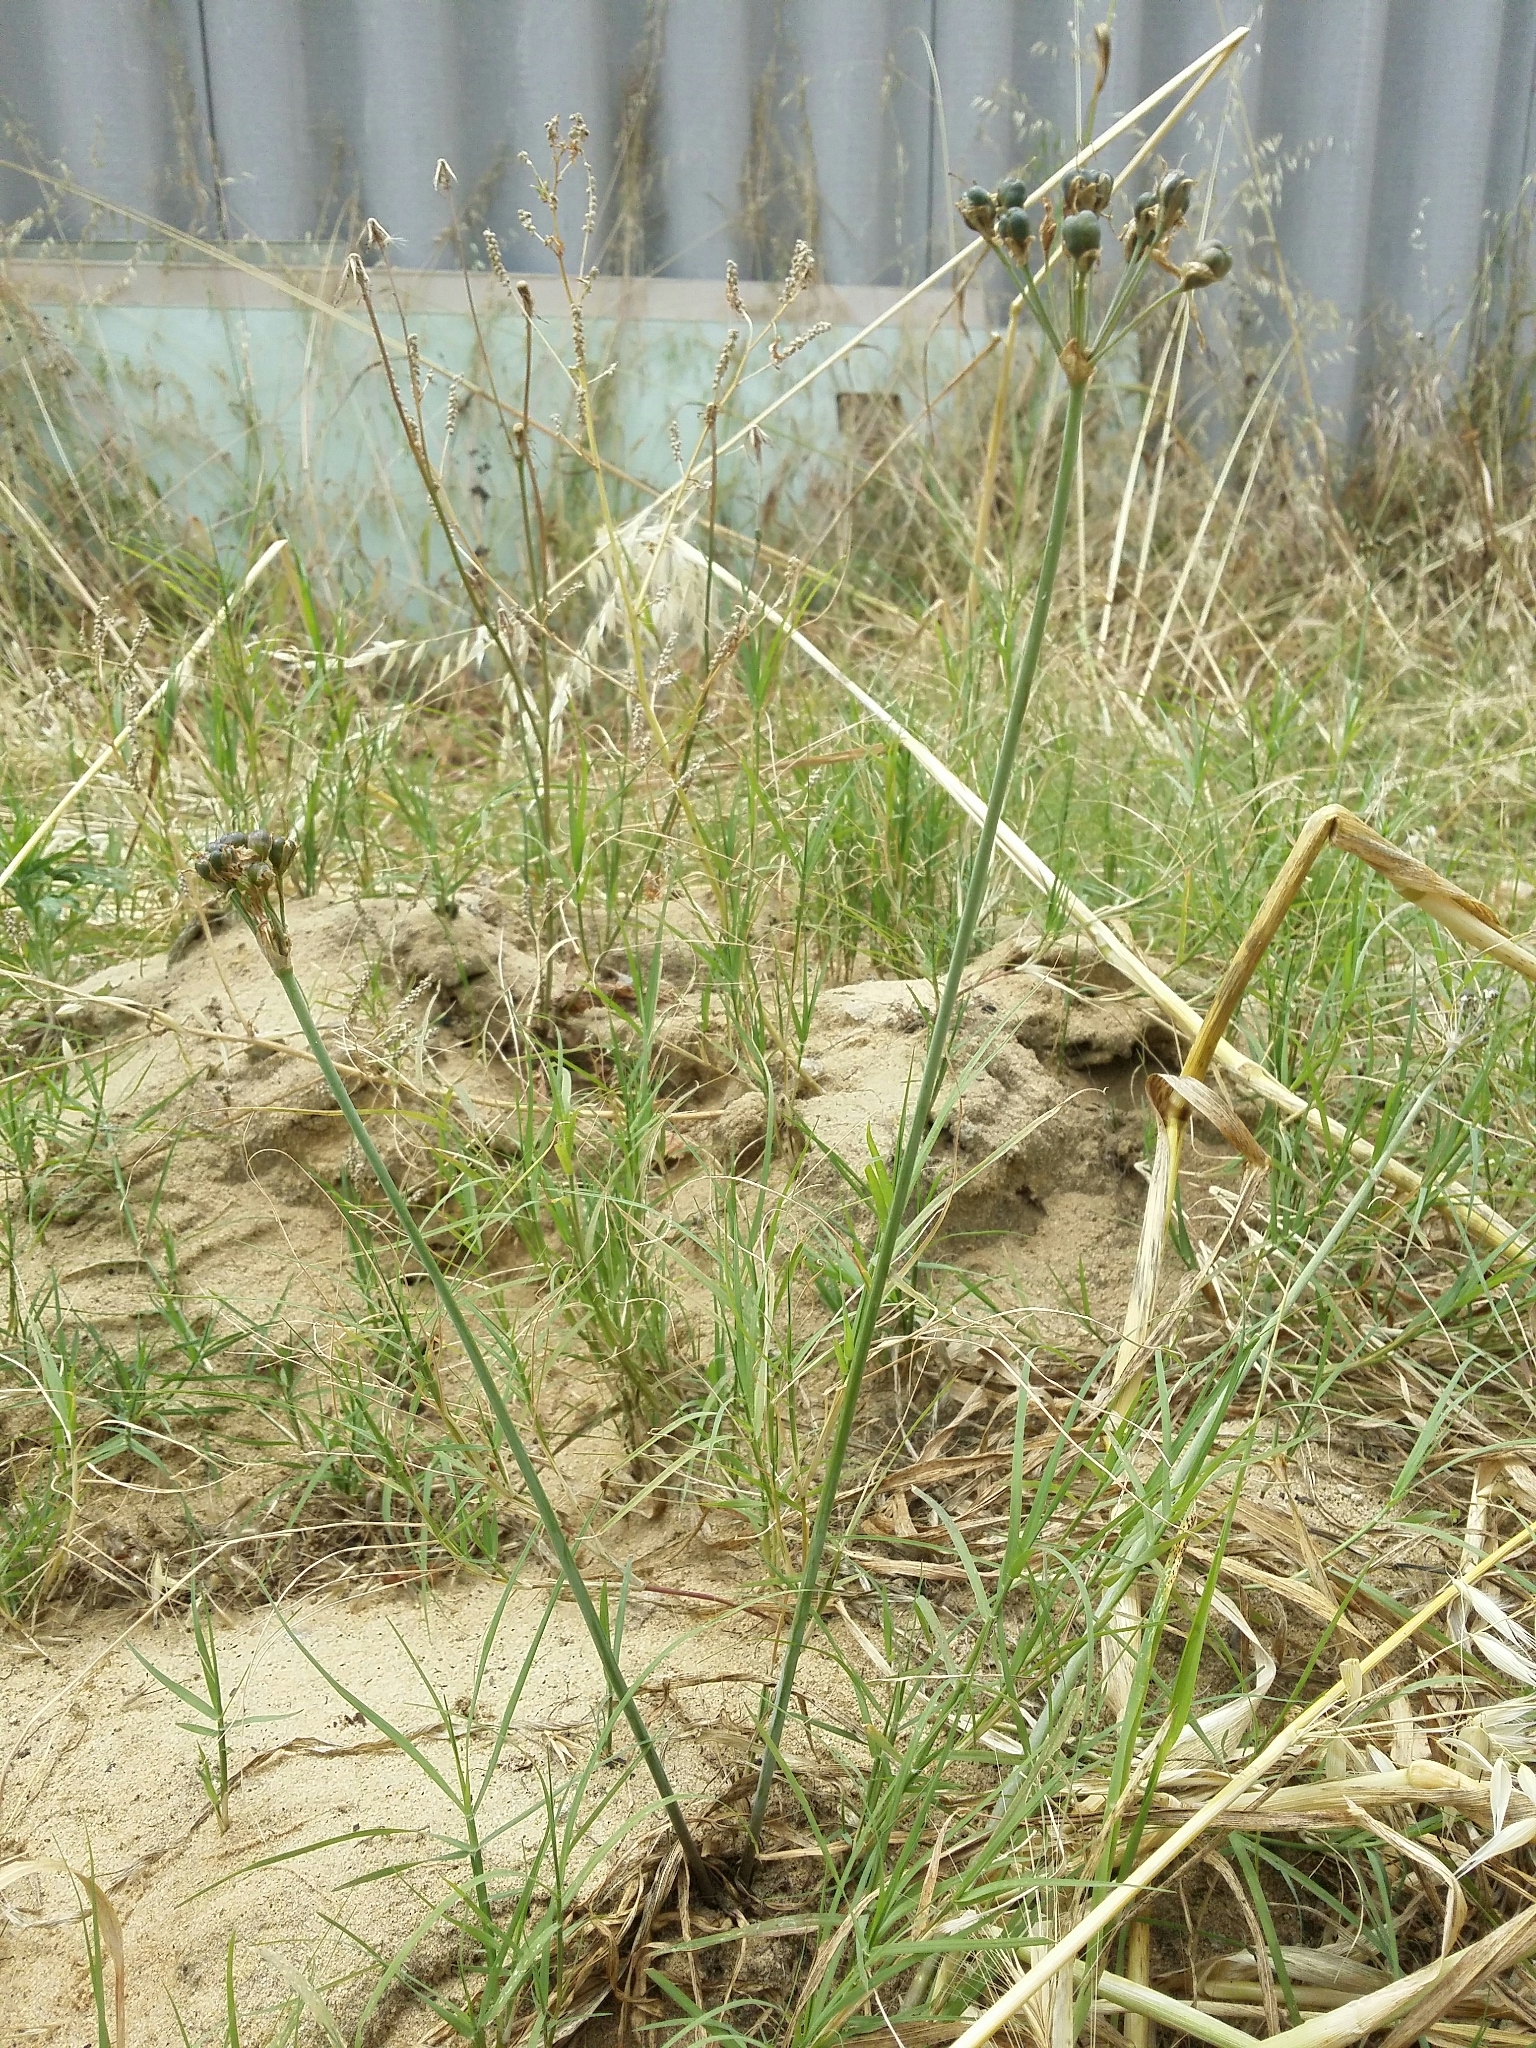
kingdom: Plantae
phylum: Tracheophyta
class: Liliopsida
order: Asparagales
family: Amaryllidaceae
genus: Nothoscordum
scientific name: Nothoscordum gracile
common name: Slender false garlic
